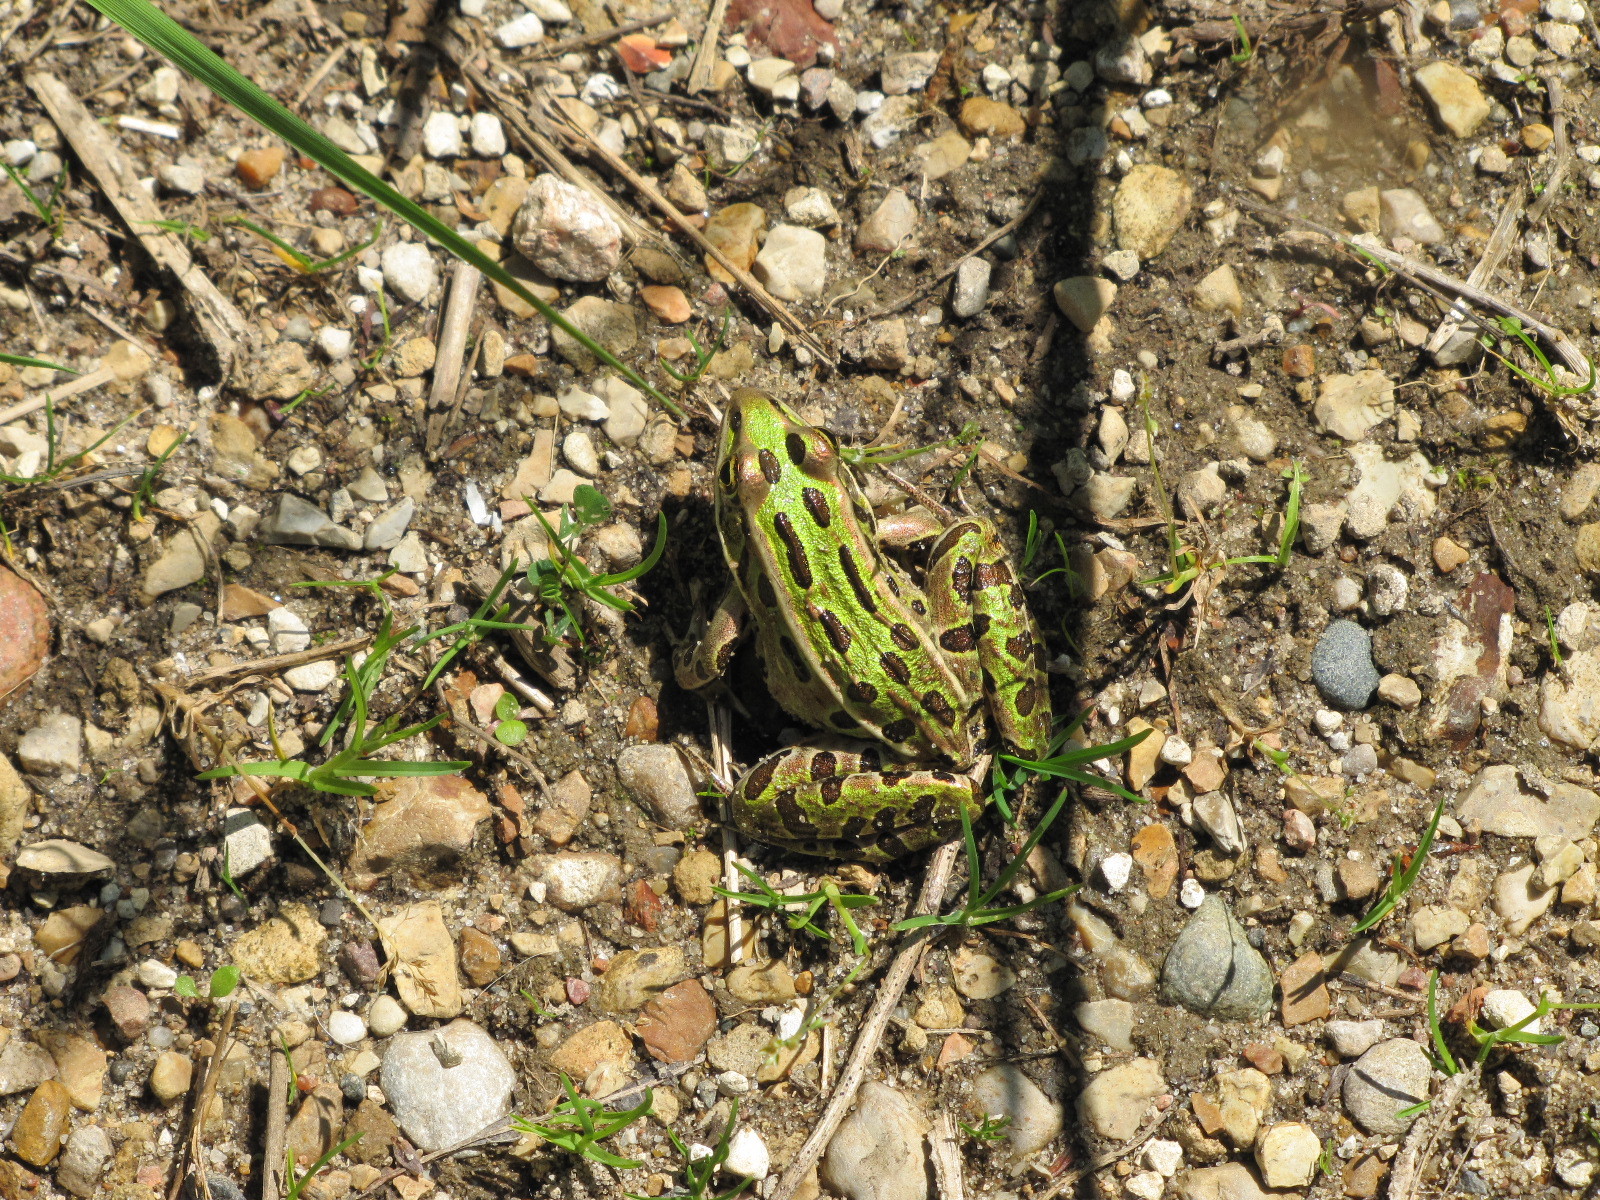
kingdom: Animalia
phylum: Chordata
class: Amphibia
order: Anura
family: Ranidae
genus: Lithobates
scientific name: Lithobates pipiens
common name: Northern leopard frog
